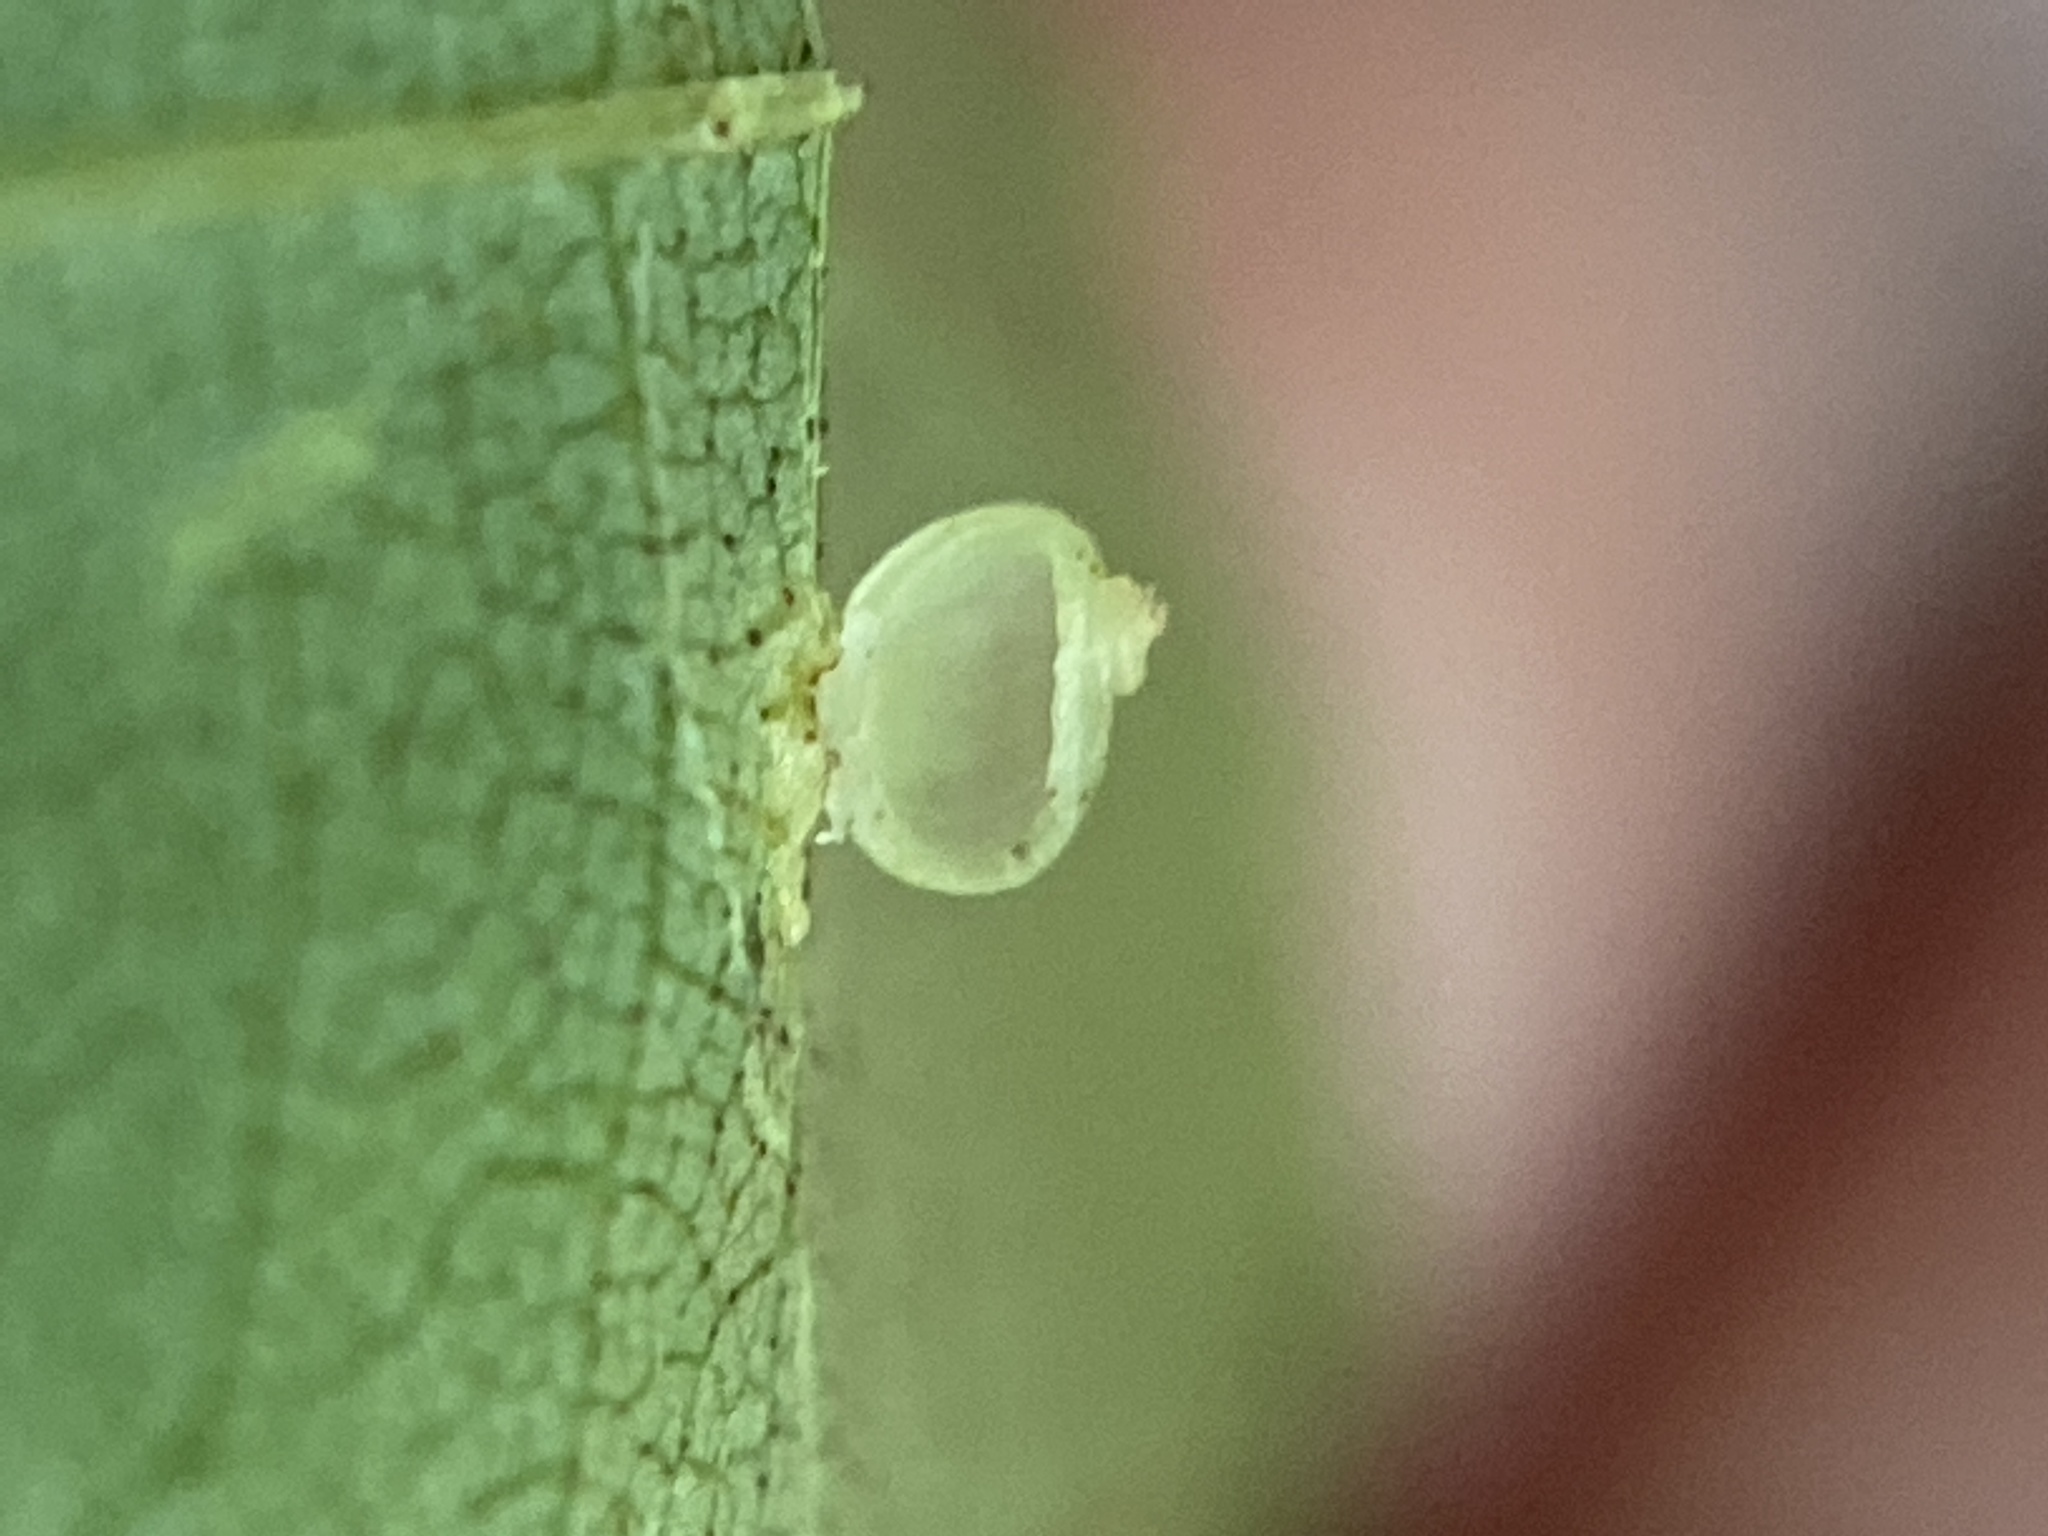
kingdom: Animalia
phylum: Arthropoda
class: Insecta
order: Diptera
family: Cecidomyiidae
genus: Caryomyia
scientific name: Caryomyia leviglobus
